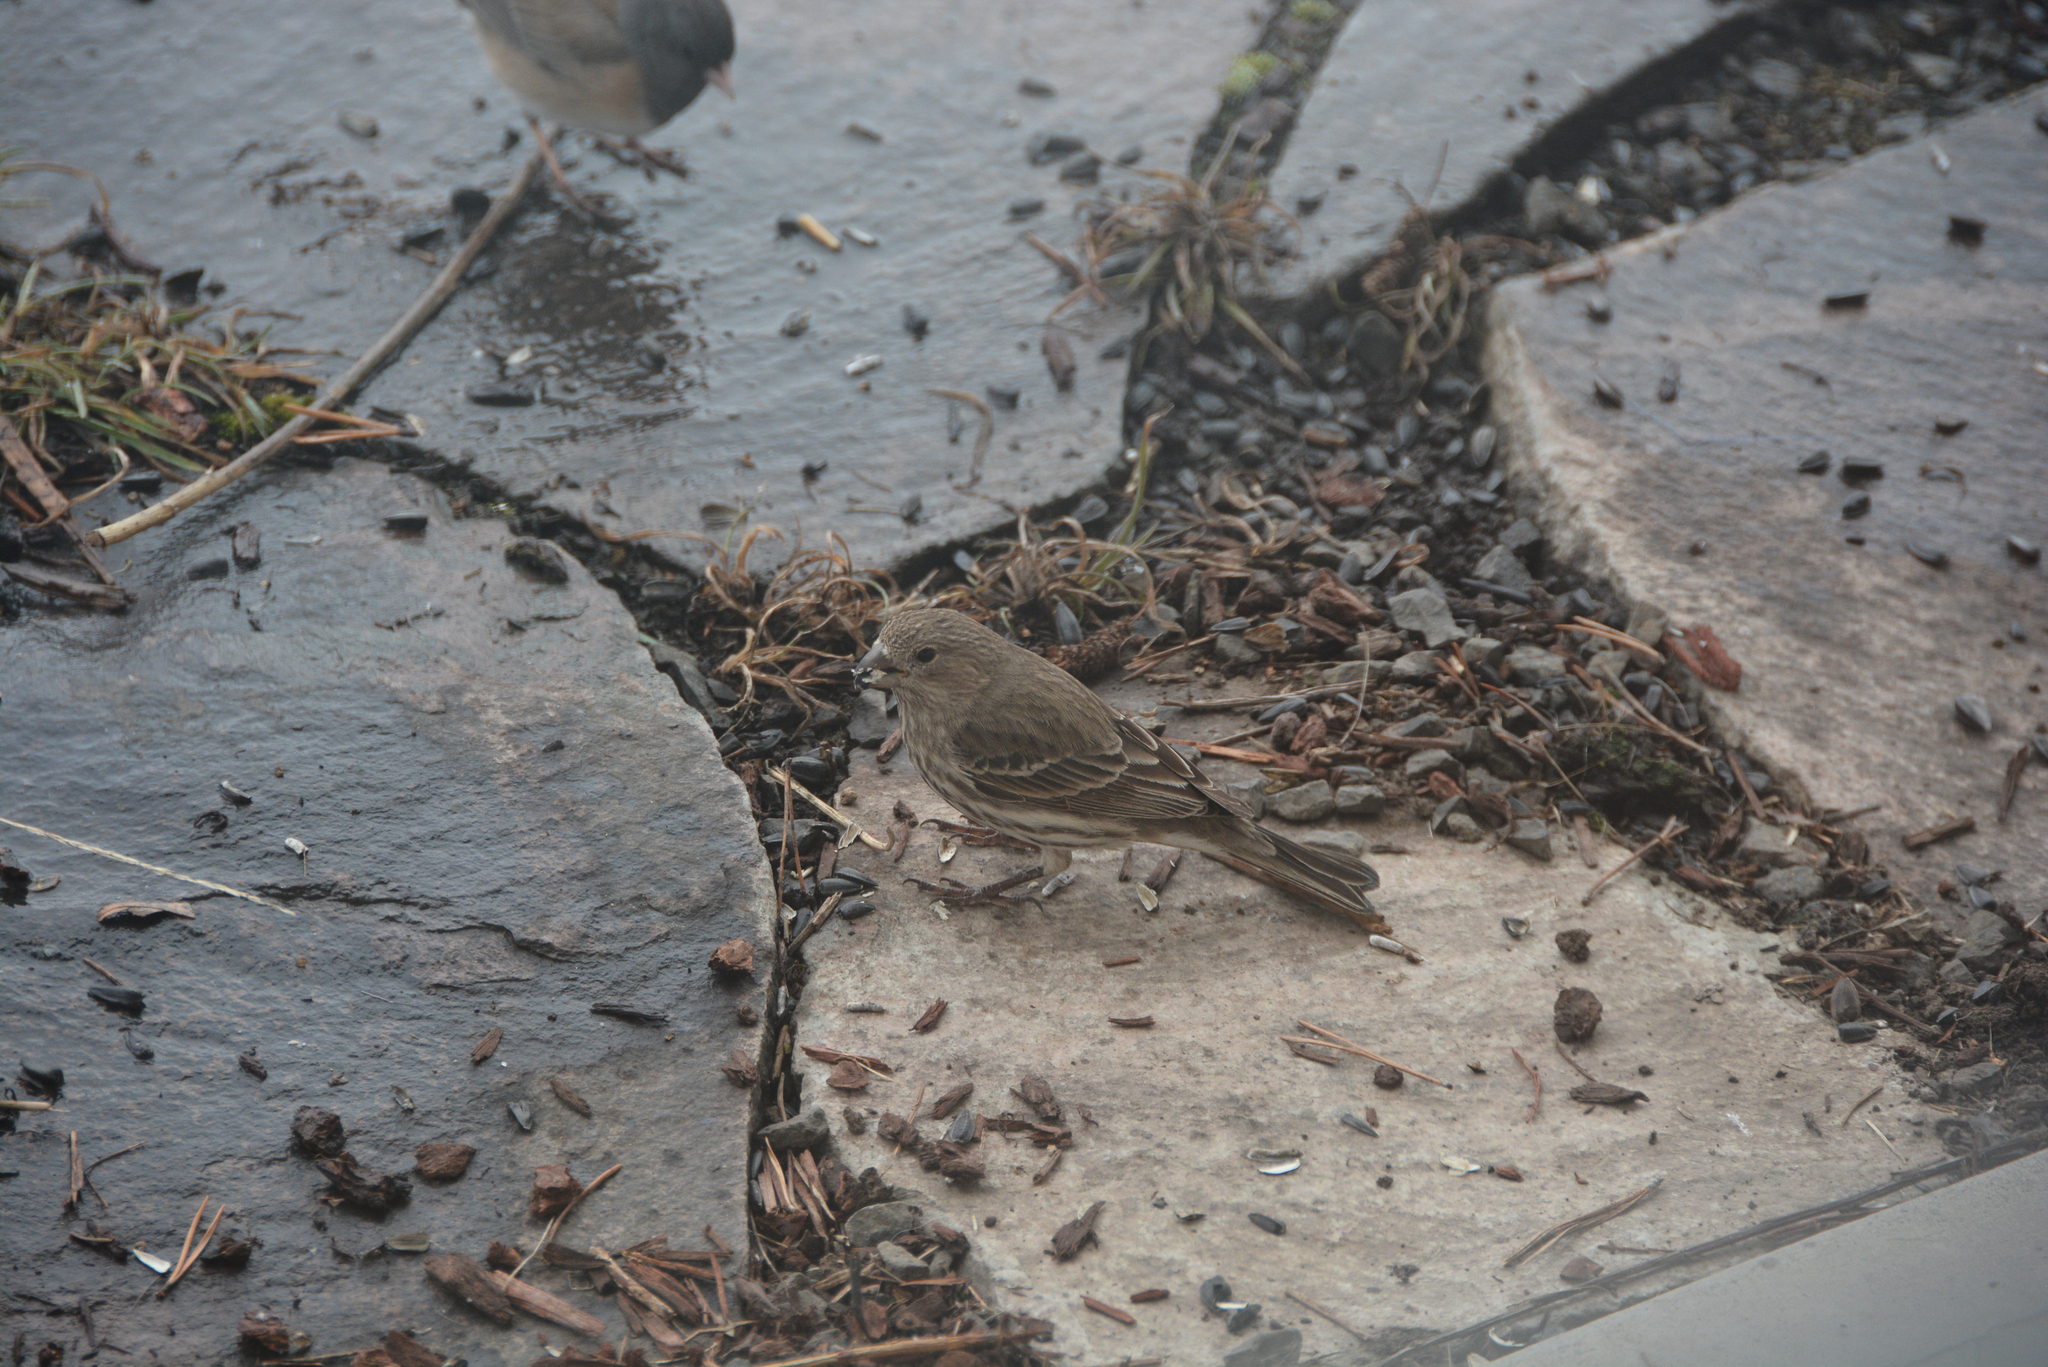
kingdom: Animalia
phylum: Chordata
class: Aves
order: Passeriformes
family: Fringillidae
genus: Haemorhous
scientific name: Haemorhous mexicanus
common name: House finch
